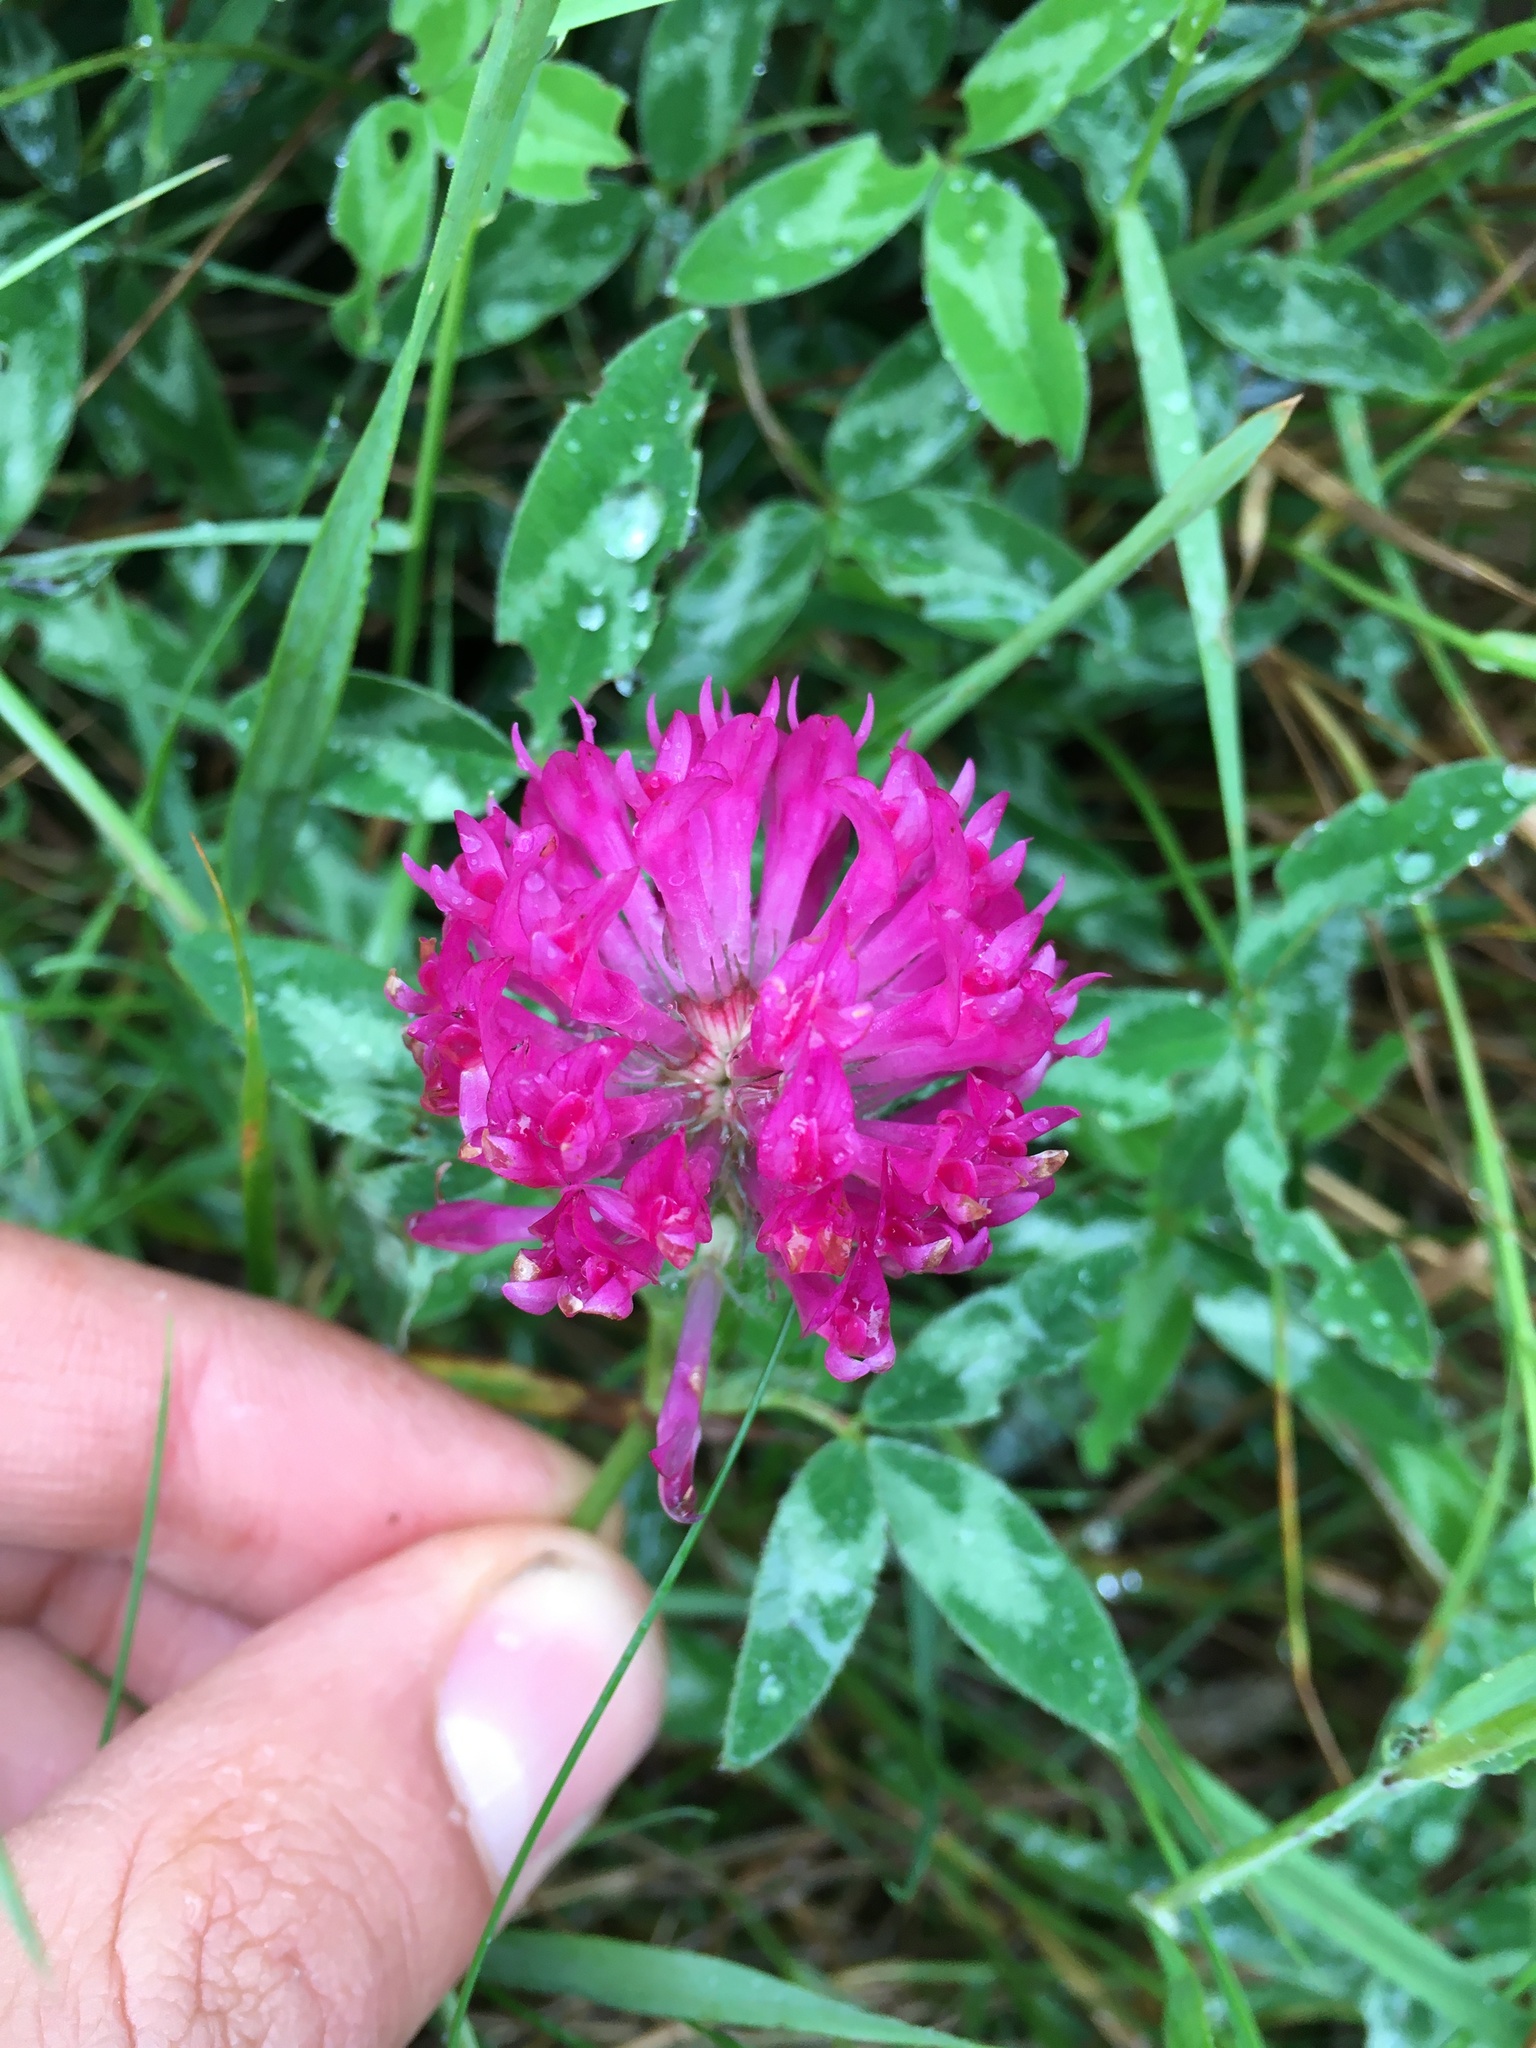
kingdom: Plantae
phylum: Tracheophyta
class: Magnoliopsida
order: Fabales
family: Fabaceae
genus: Trifolium
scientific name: Trifolium medium
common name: Zigzag clover
